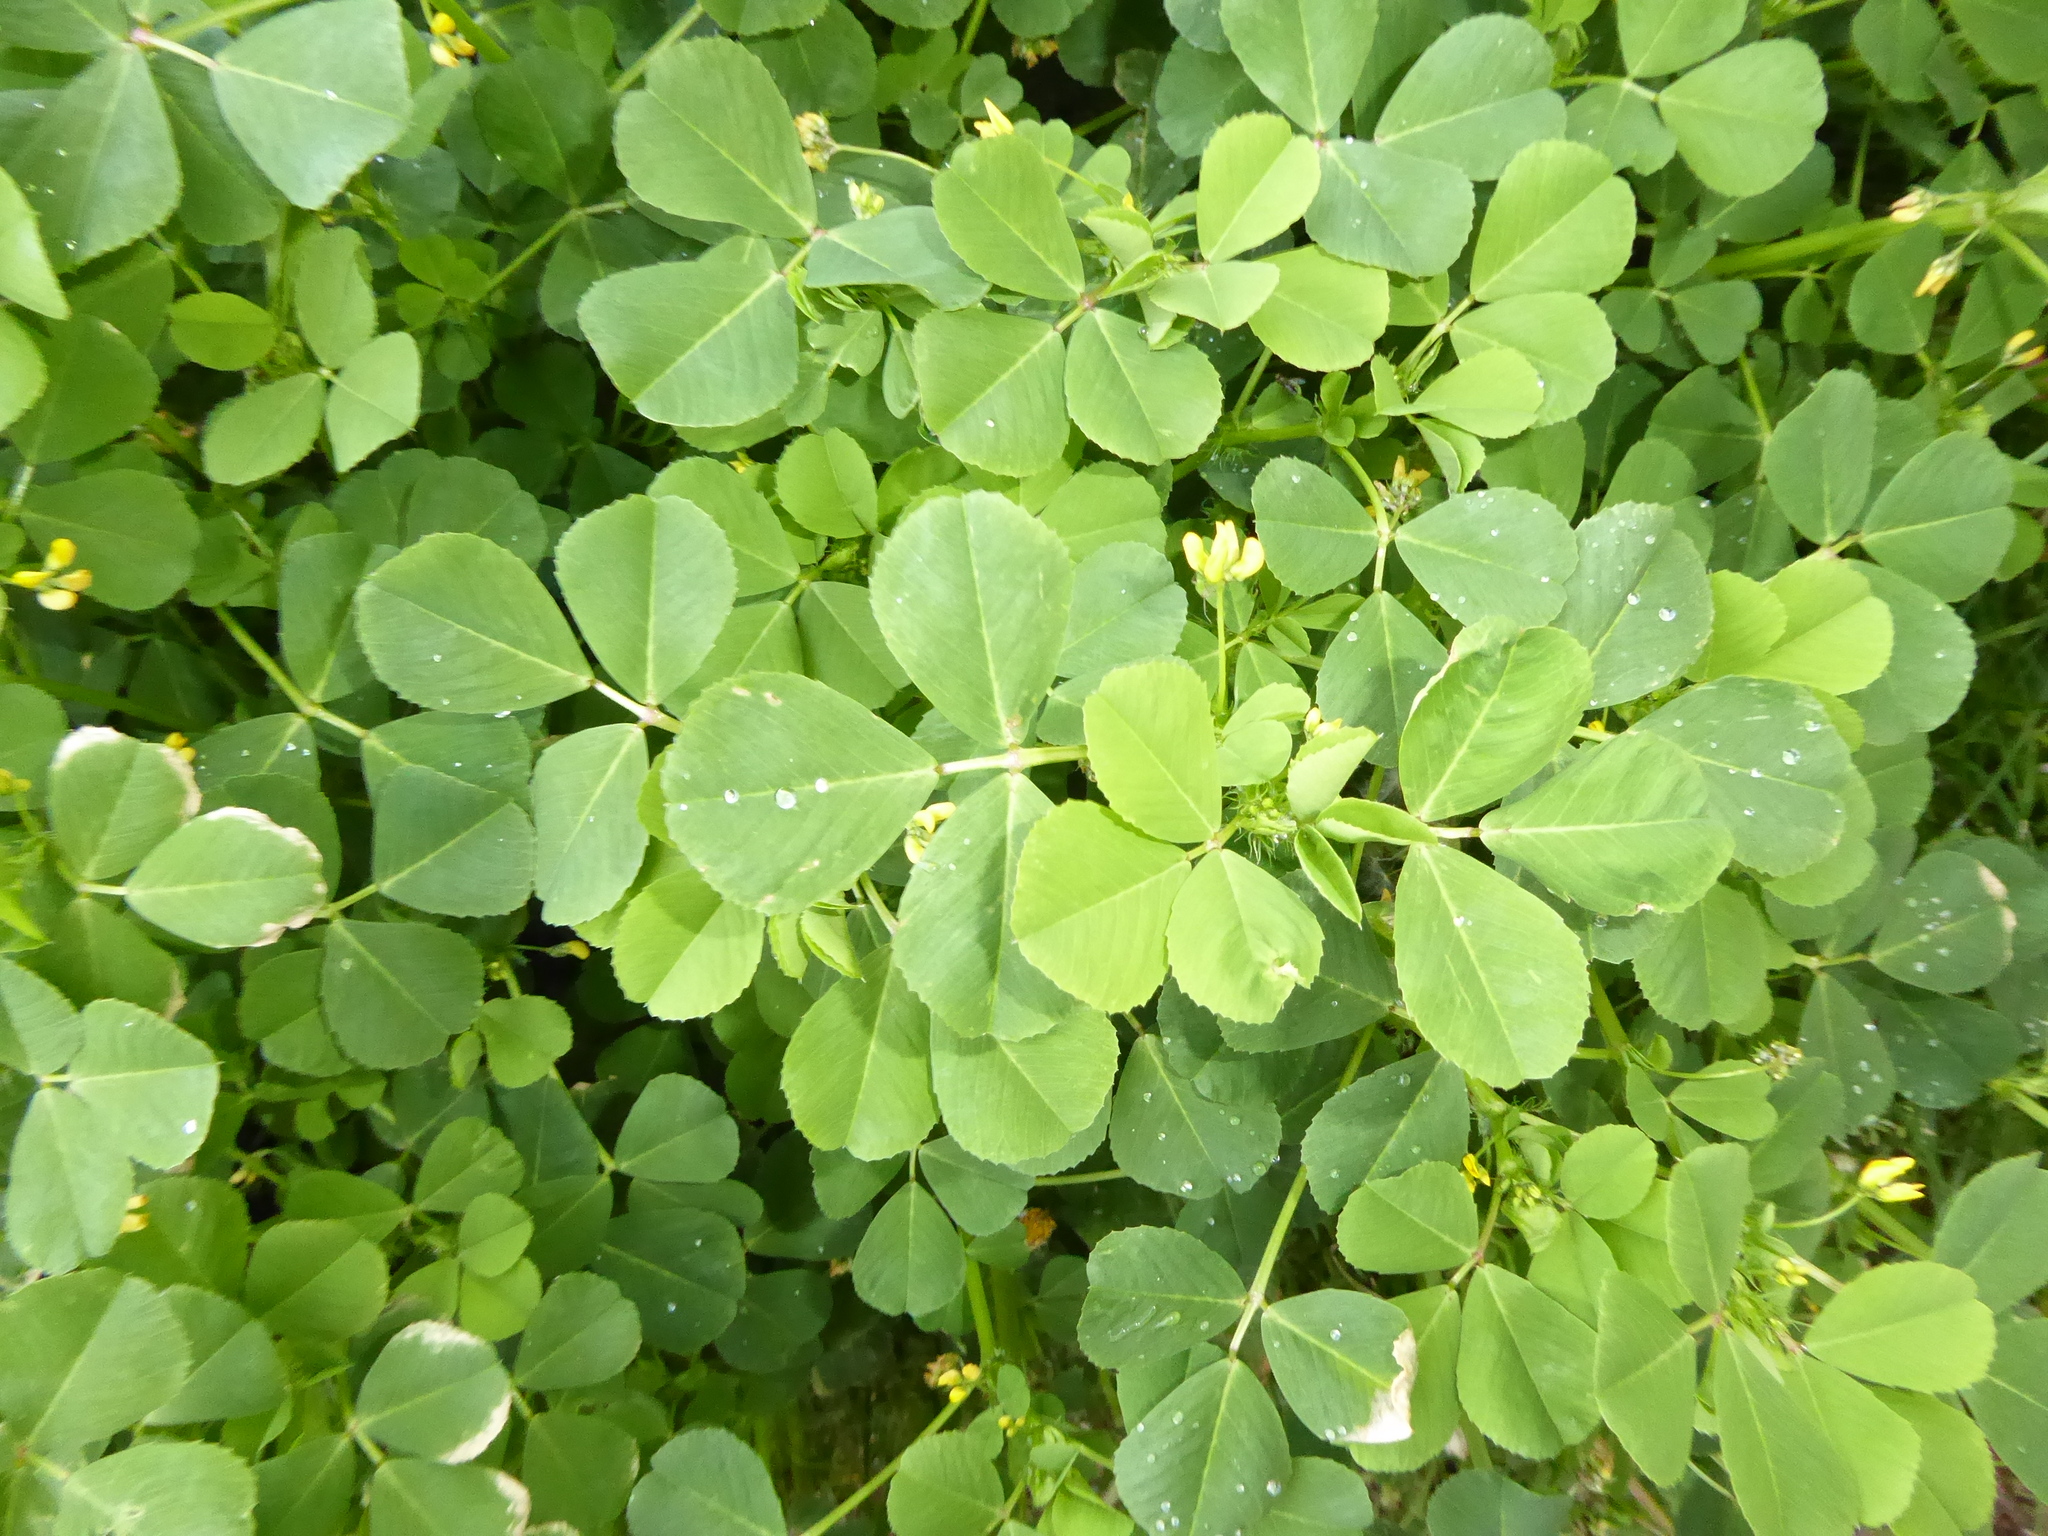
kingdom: Plantae
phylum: Tracheophyta
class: Magnoliopsida
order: Fabales
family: Fabaceae
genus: Medicago
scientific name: Medicago arabica
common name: Spotted medick
